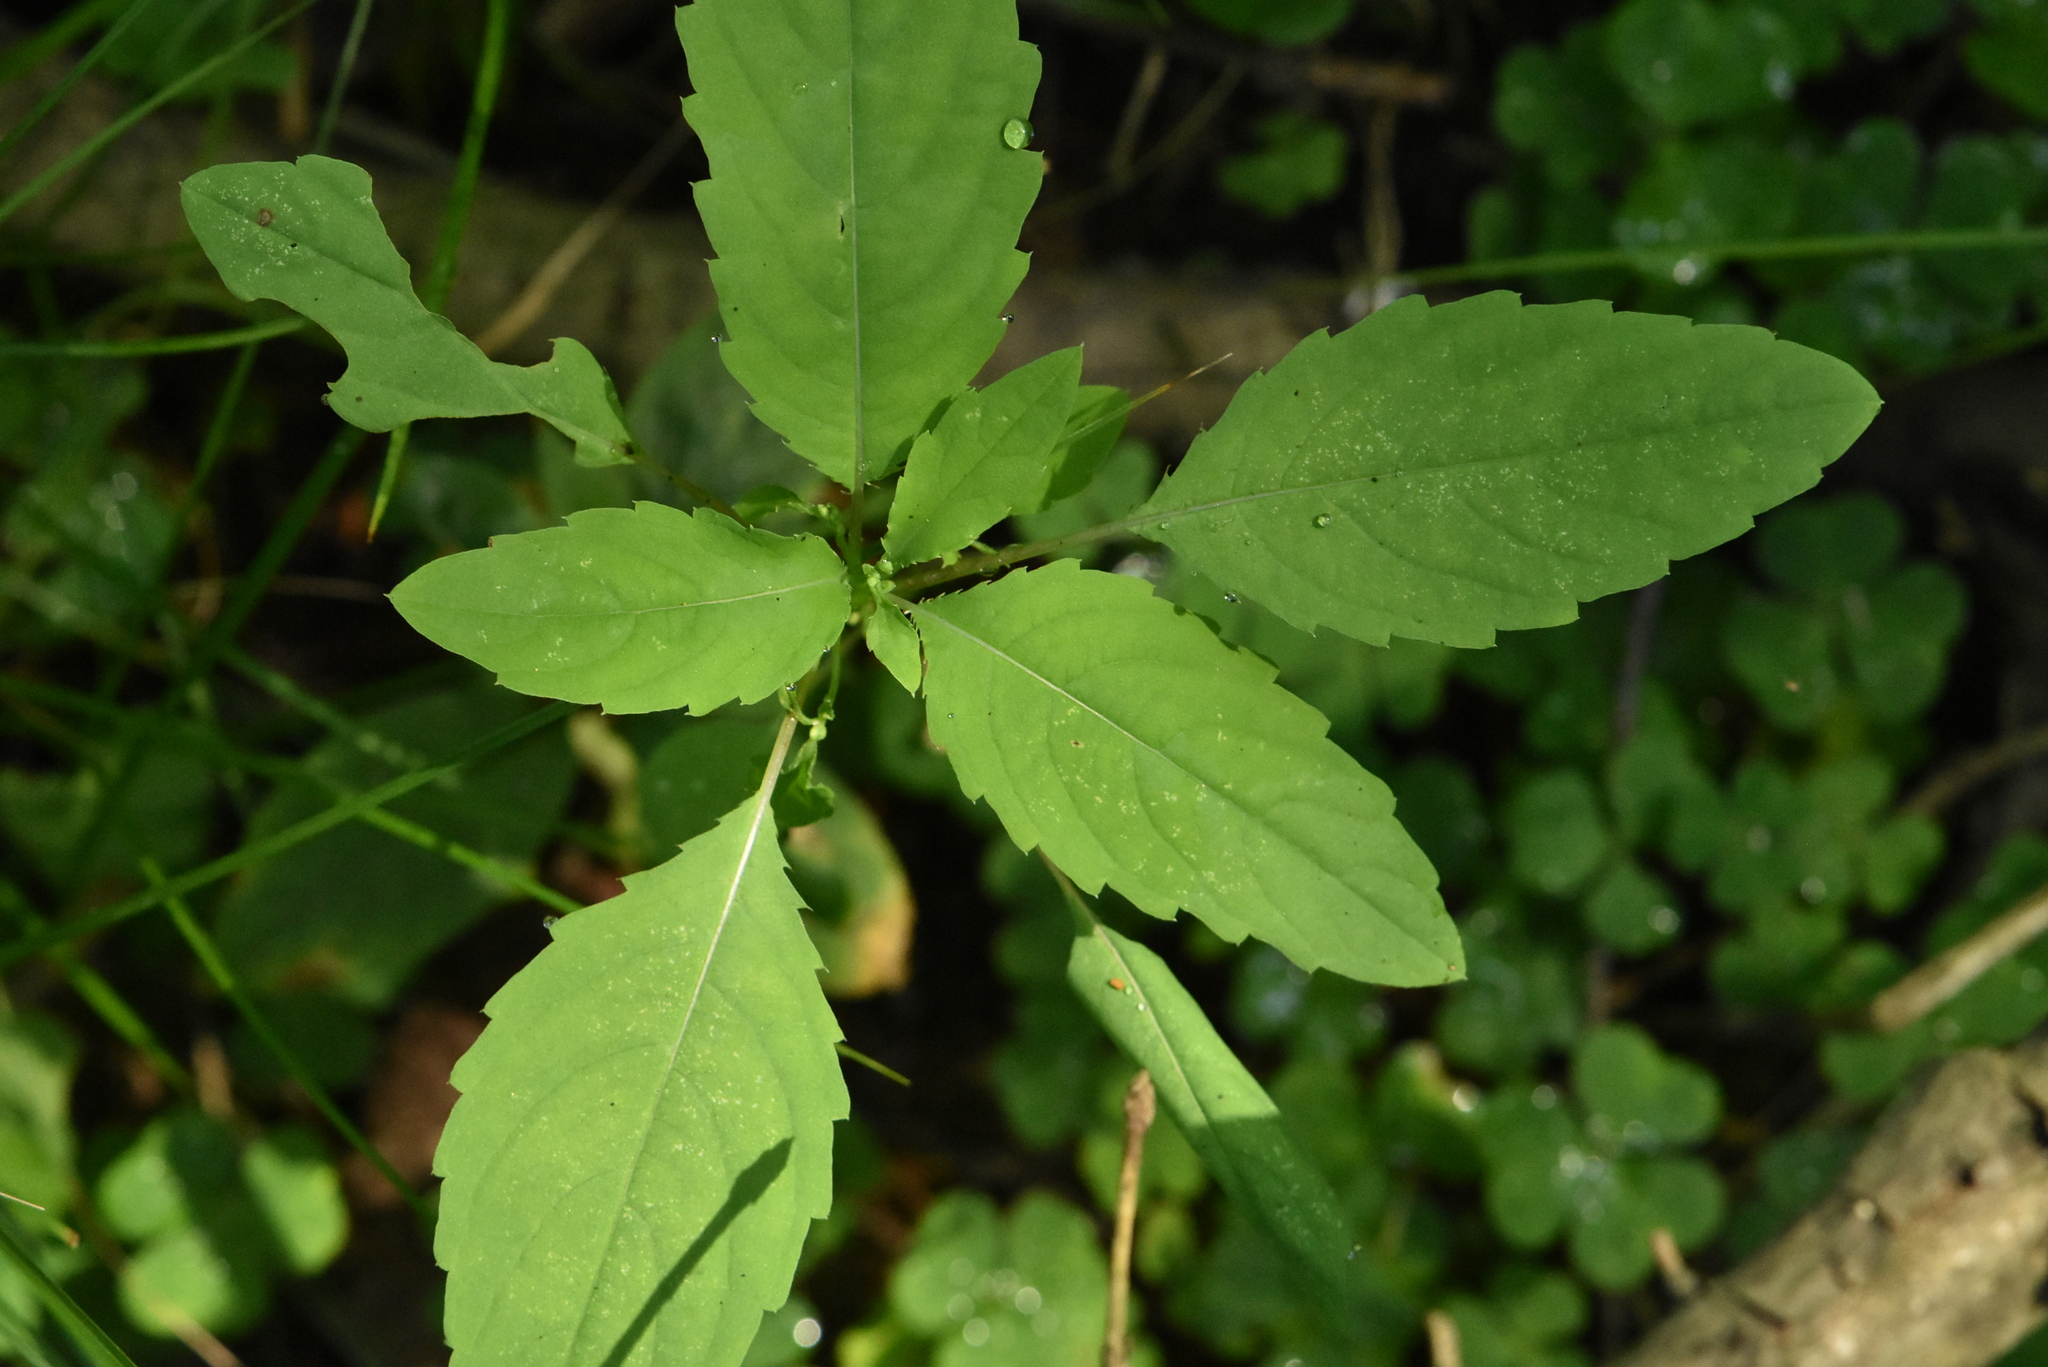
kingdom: Plantae
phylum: Tracheophyta
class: Magnoliopsida
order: Ericales
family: Balsaminaceae
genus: Impatiens
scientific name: Impatiens noli-tangere
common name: Touch-me-not balsam
